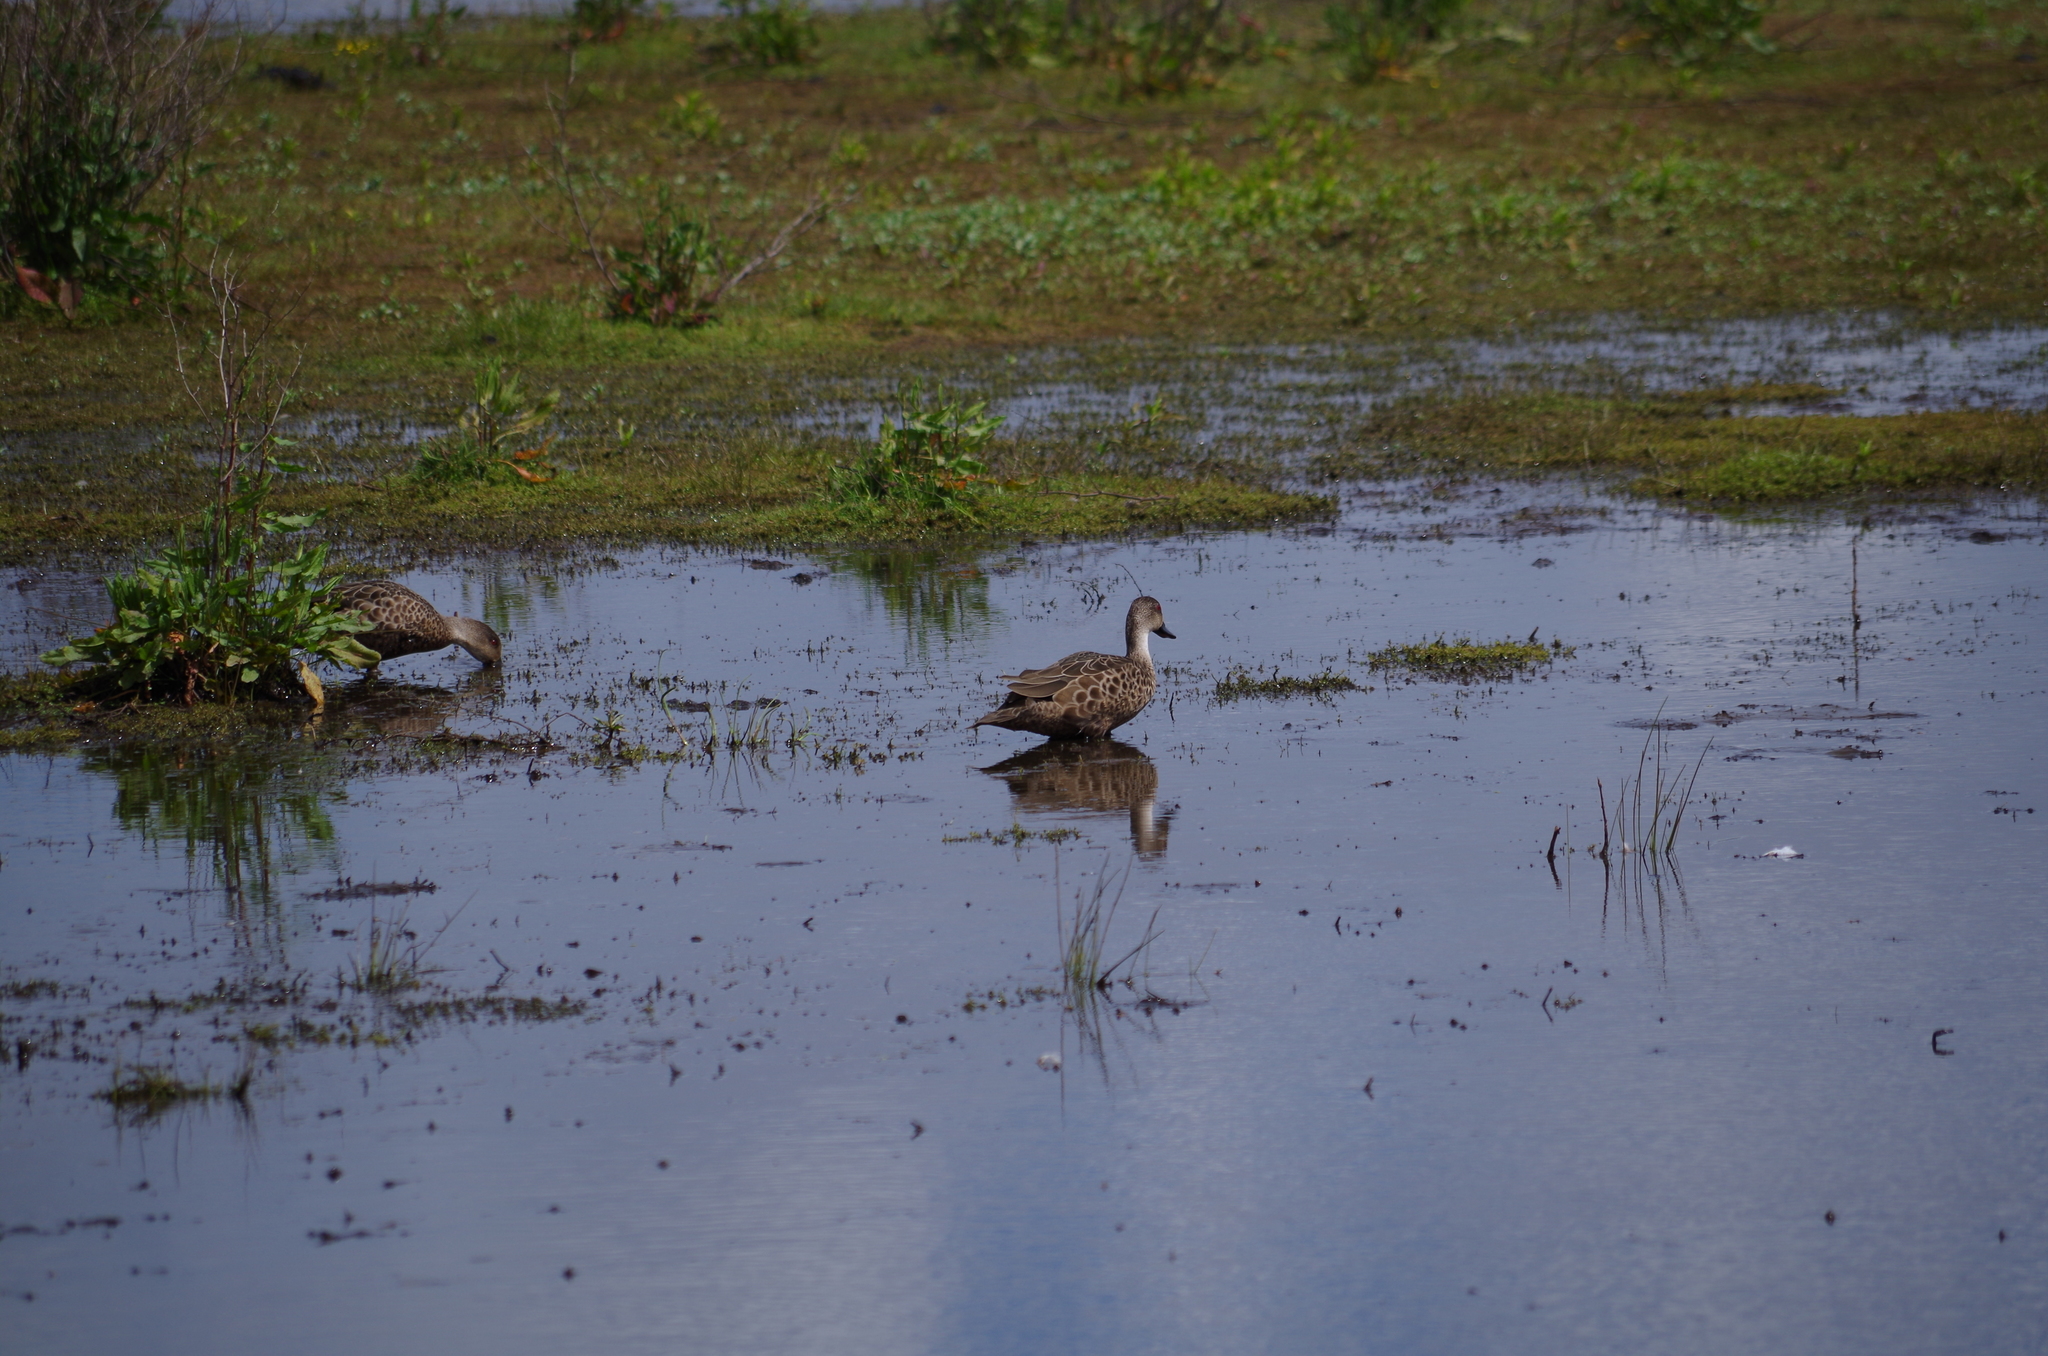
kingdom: Animalia
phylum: Chordata
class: Aves
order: Anseriformes
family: Anatidae
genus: Anas
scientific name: Anas gracilis
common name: Grey teal
